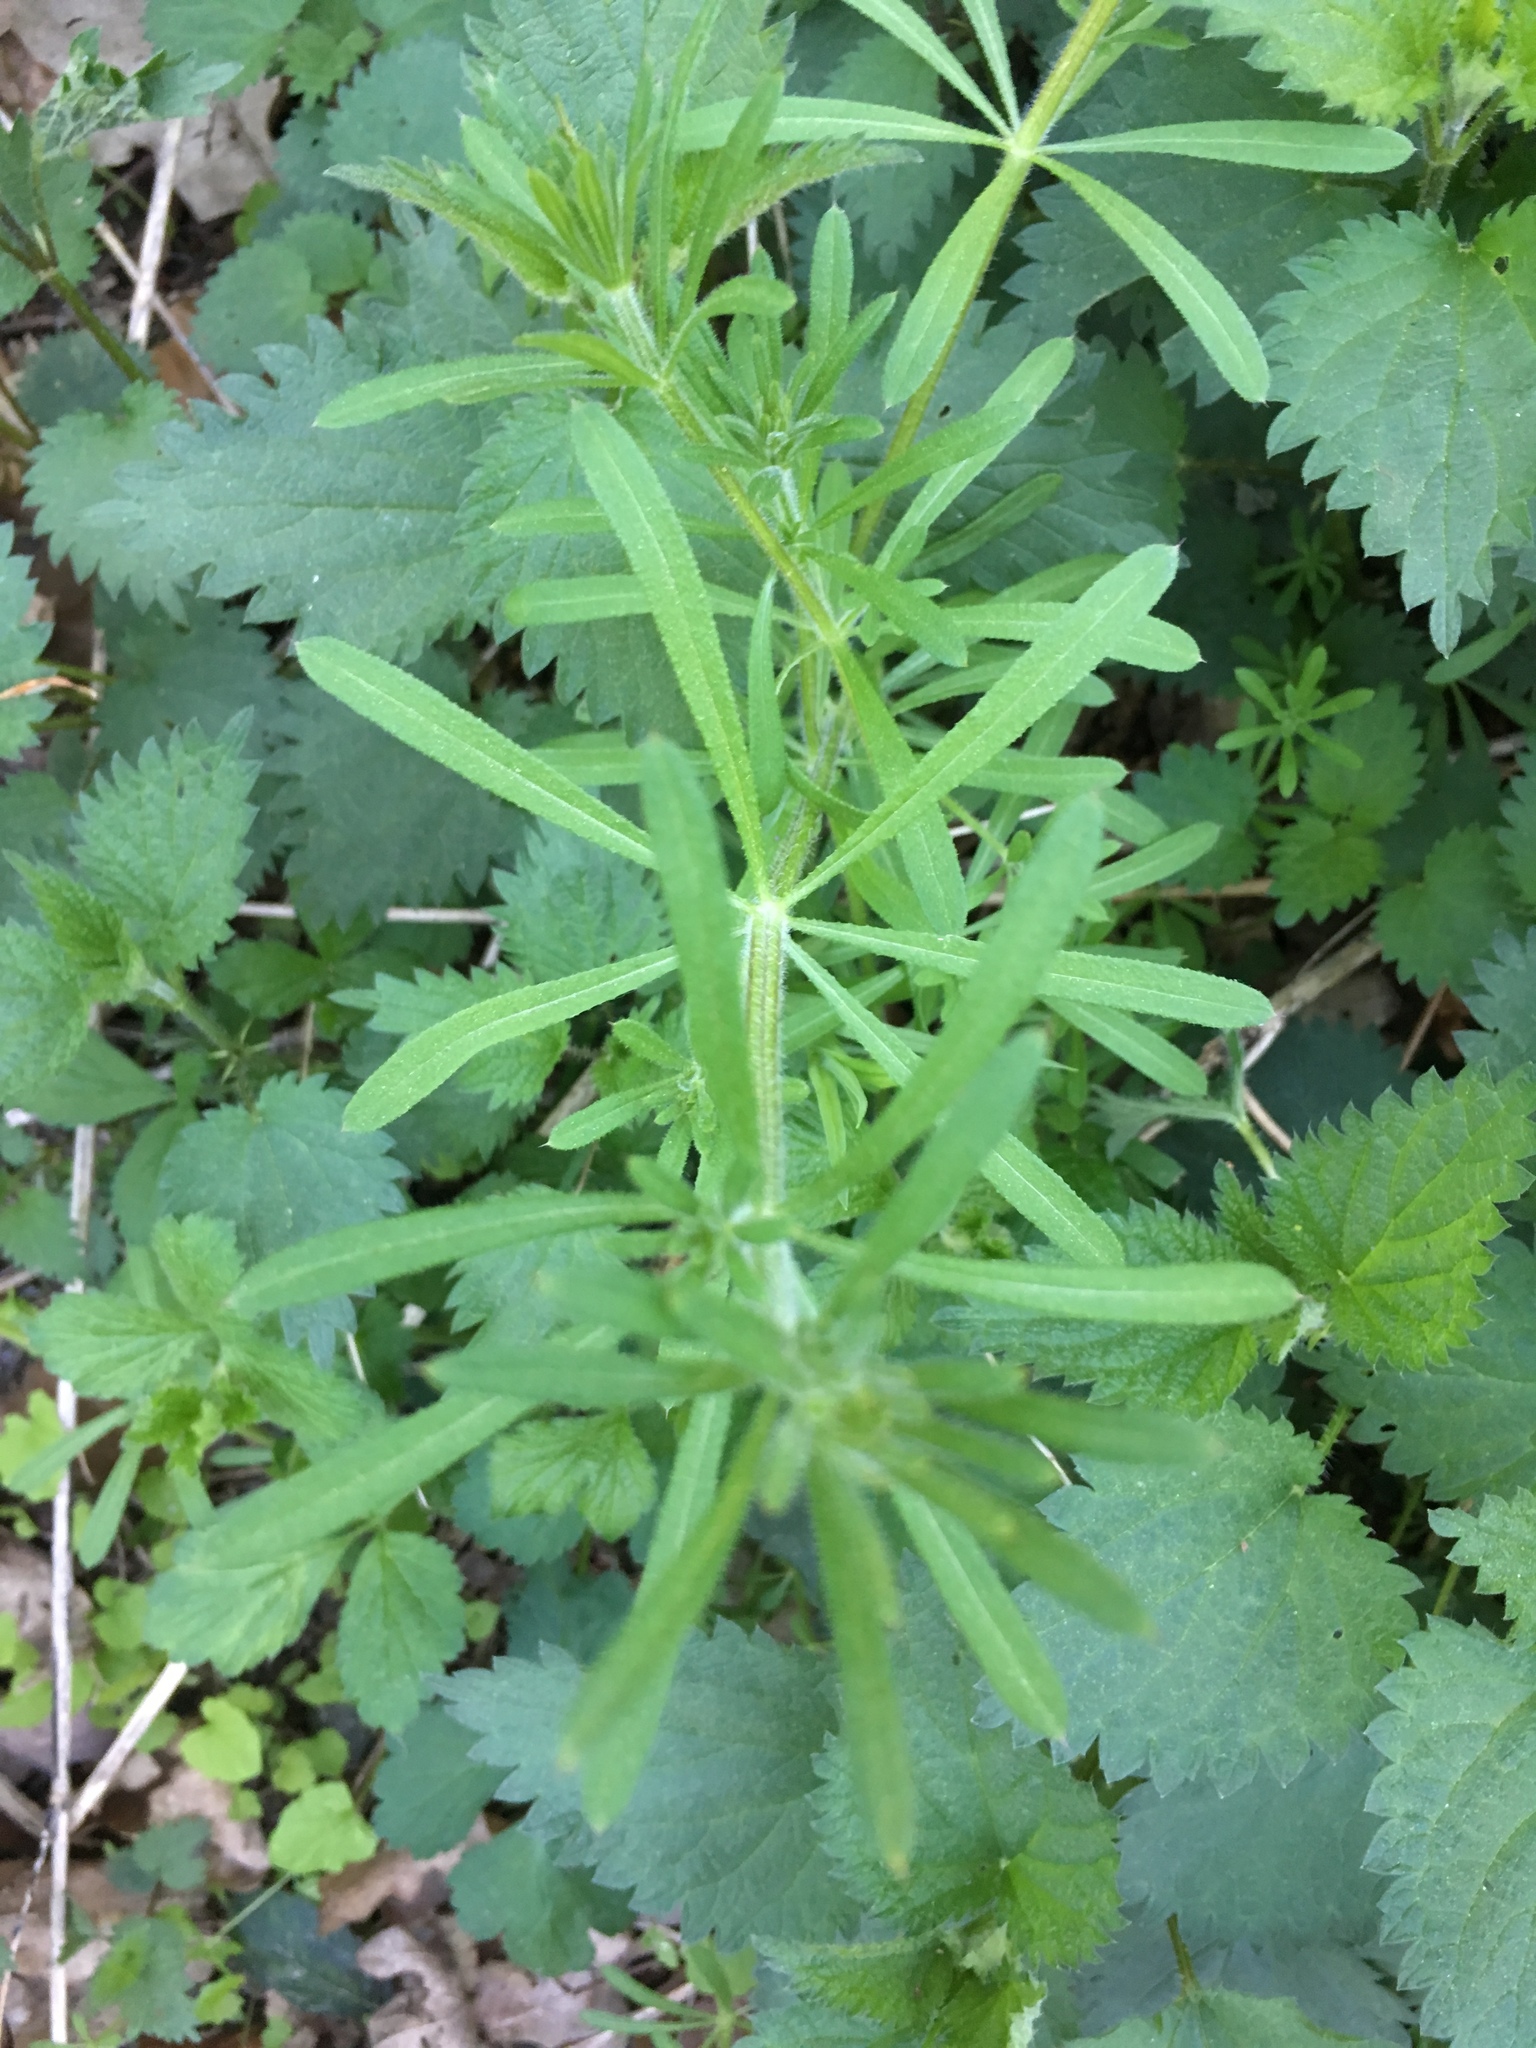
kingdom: Plantae
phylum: Tracheophyta
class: Magnoliopsida
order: Gentianales
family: Rubiaceae
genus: Galium
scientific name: Galium aparine
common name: Cleavers
